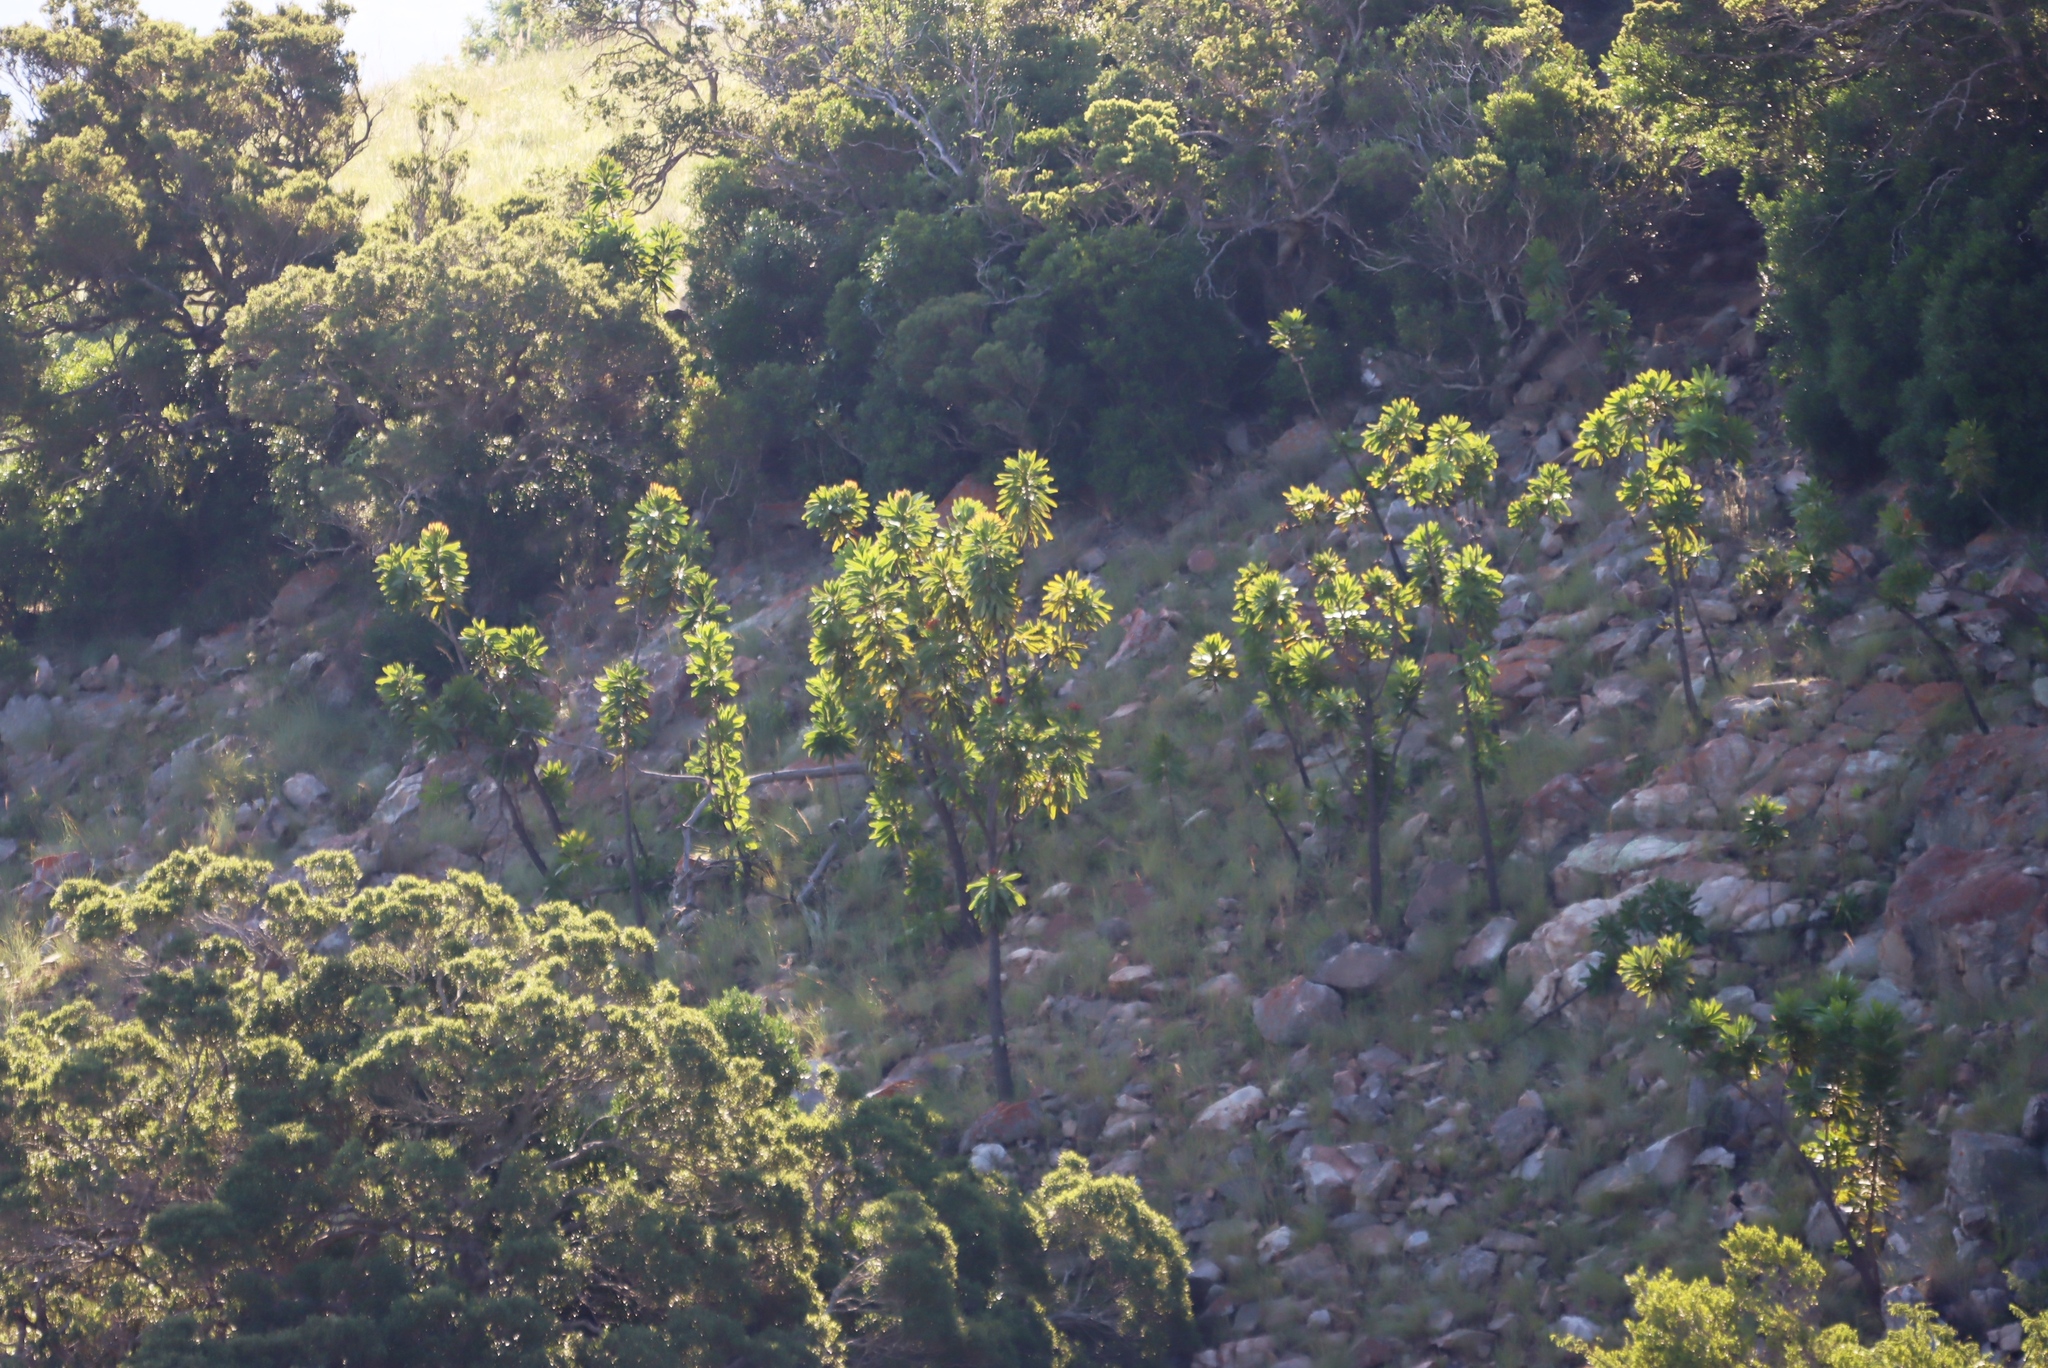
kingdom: Plantae
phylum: Tracheophyta
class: Magnoliopsida
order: Proteales
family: Proteaceae
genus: Protea
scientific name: Protea comptonii
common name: Barberton mountain sugarbush
